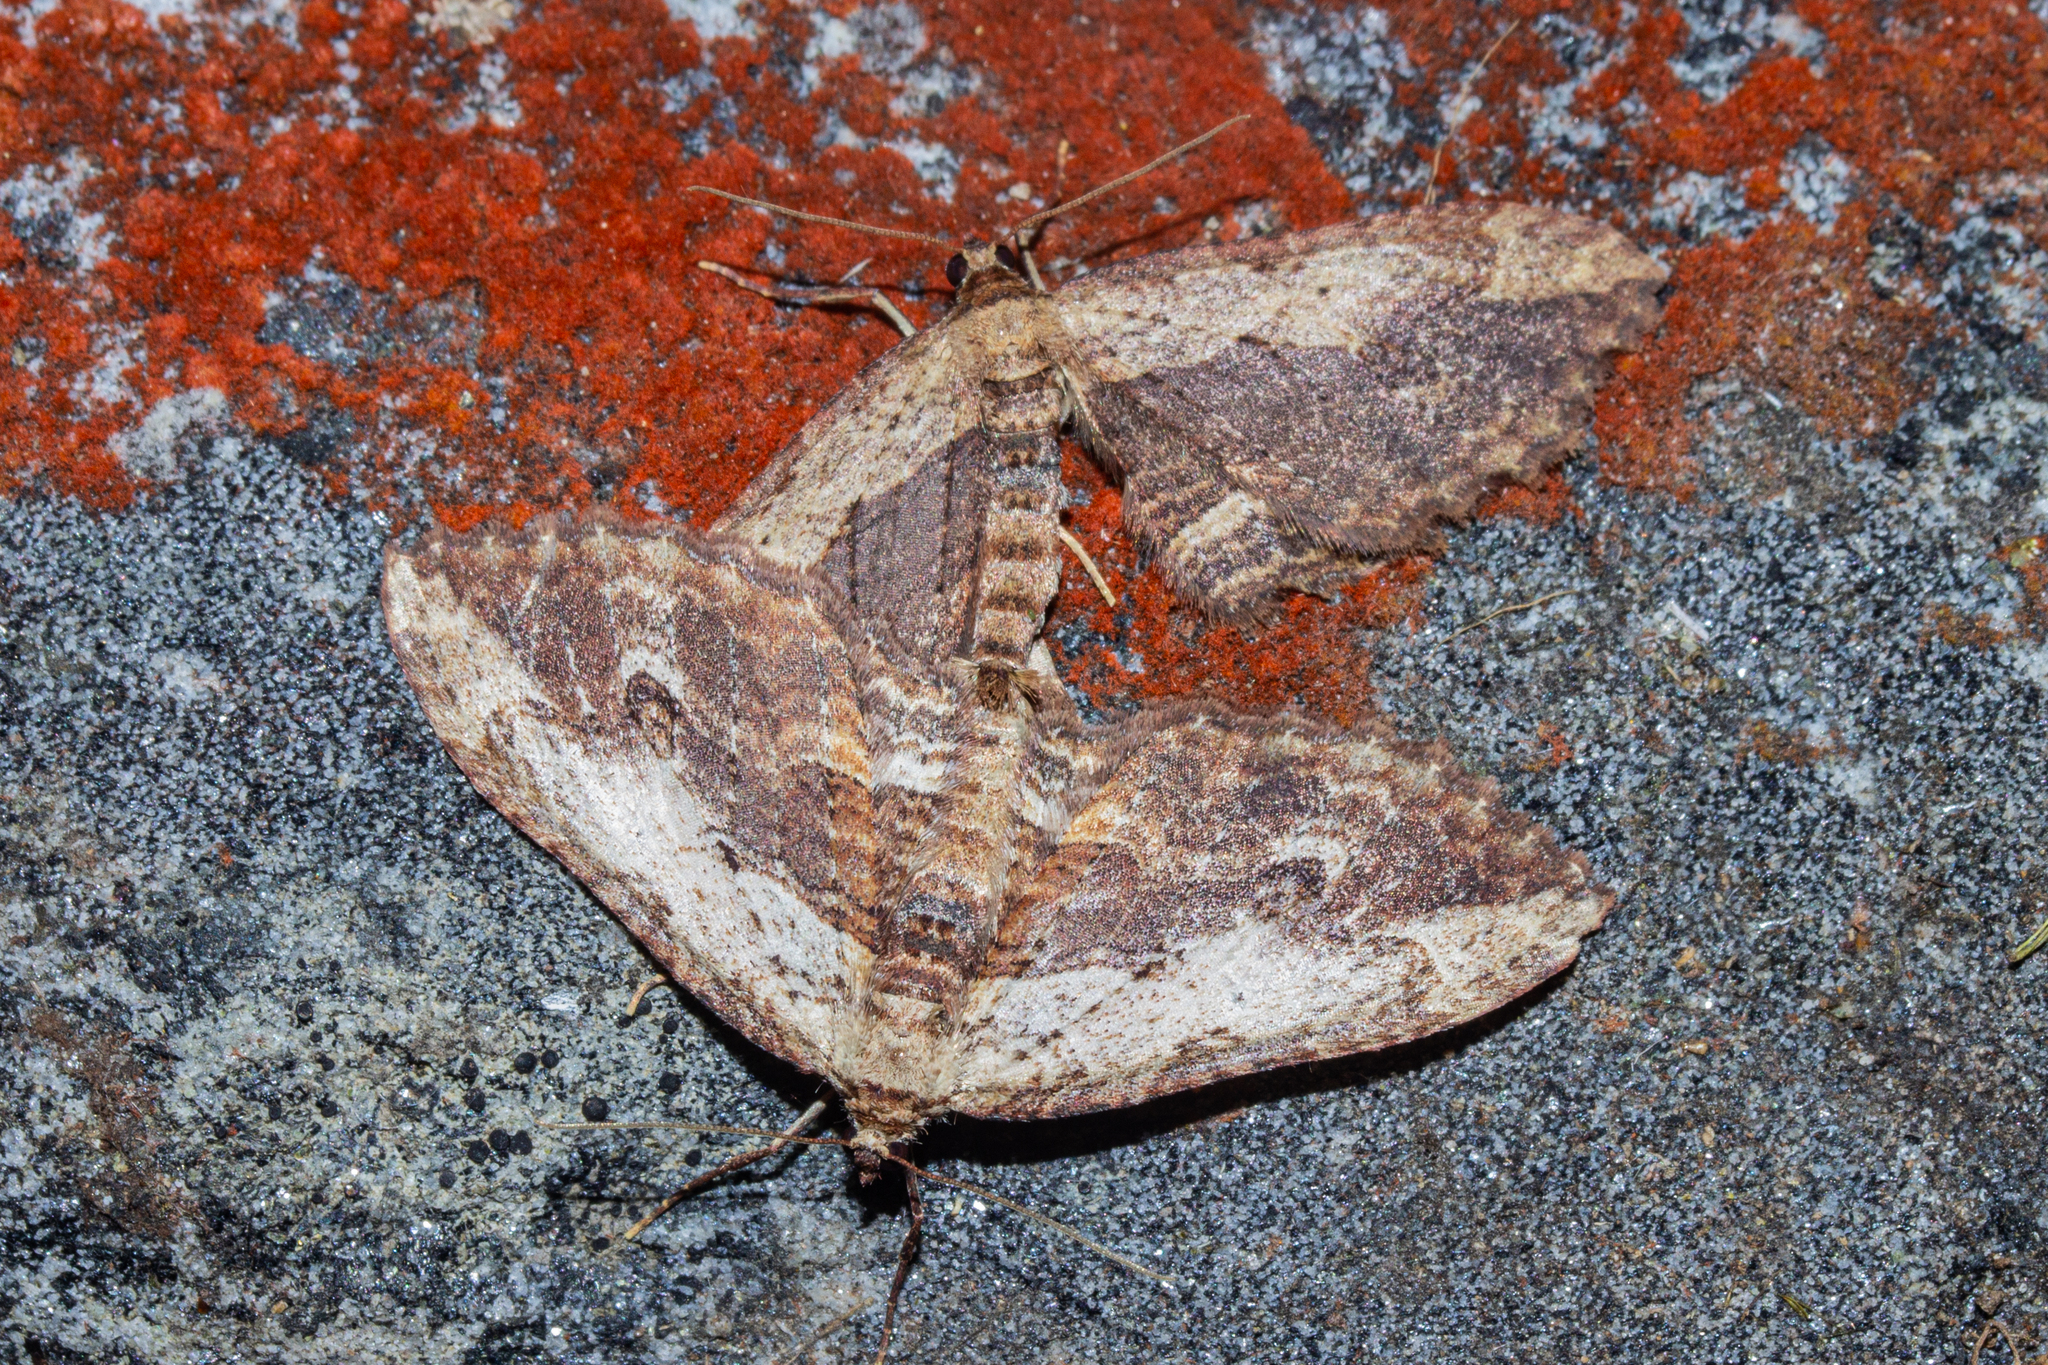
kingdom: Animalia
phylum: Arthropoda
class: Insecta
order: Lepidoptera
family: Geometridae
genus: Austrocidaria
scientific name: Austrocidaria bipartita
